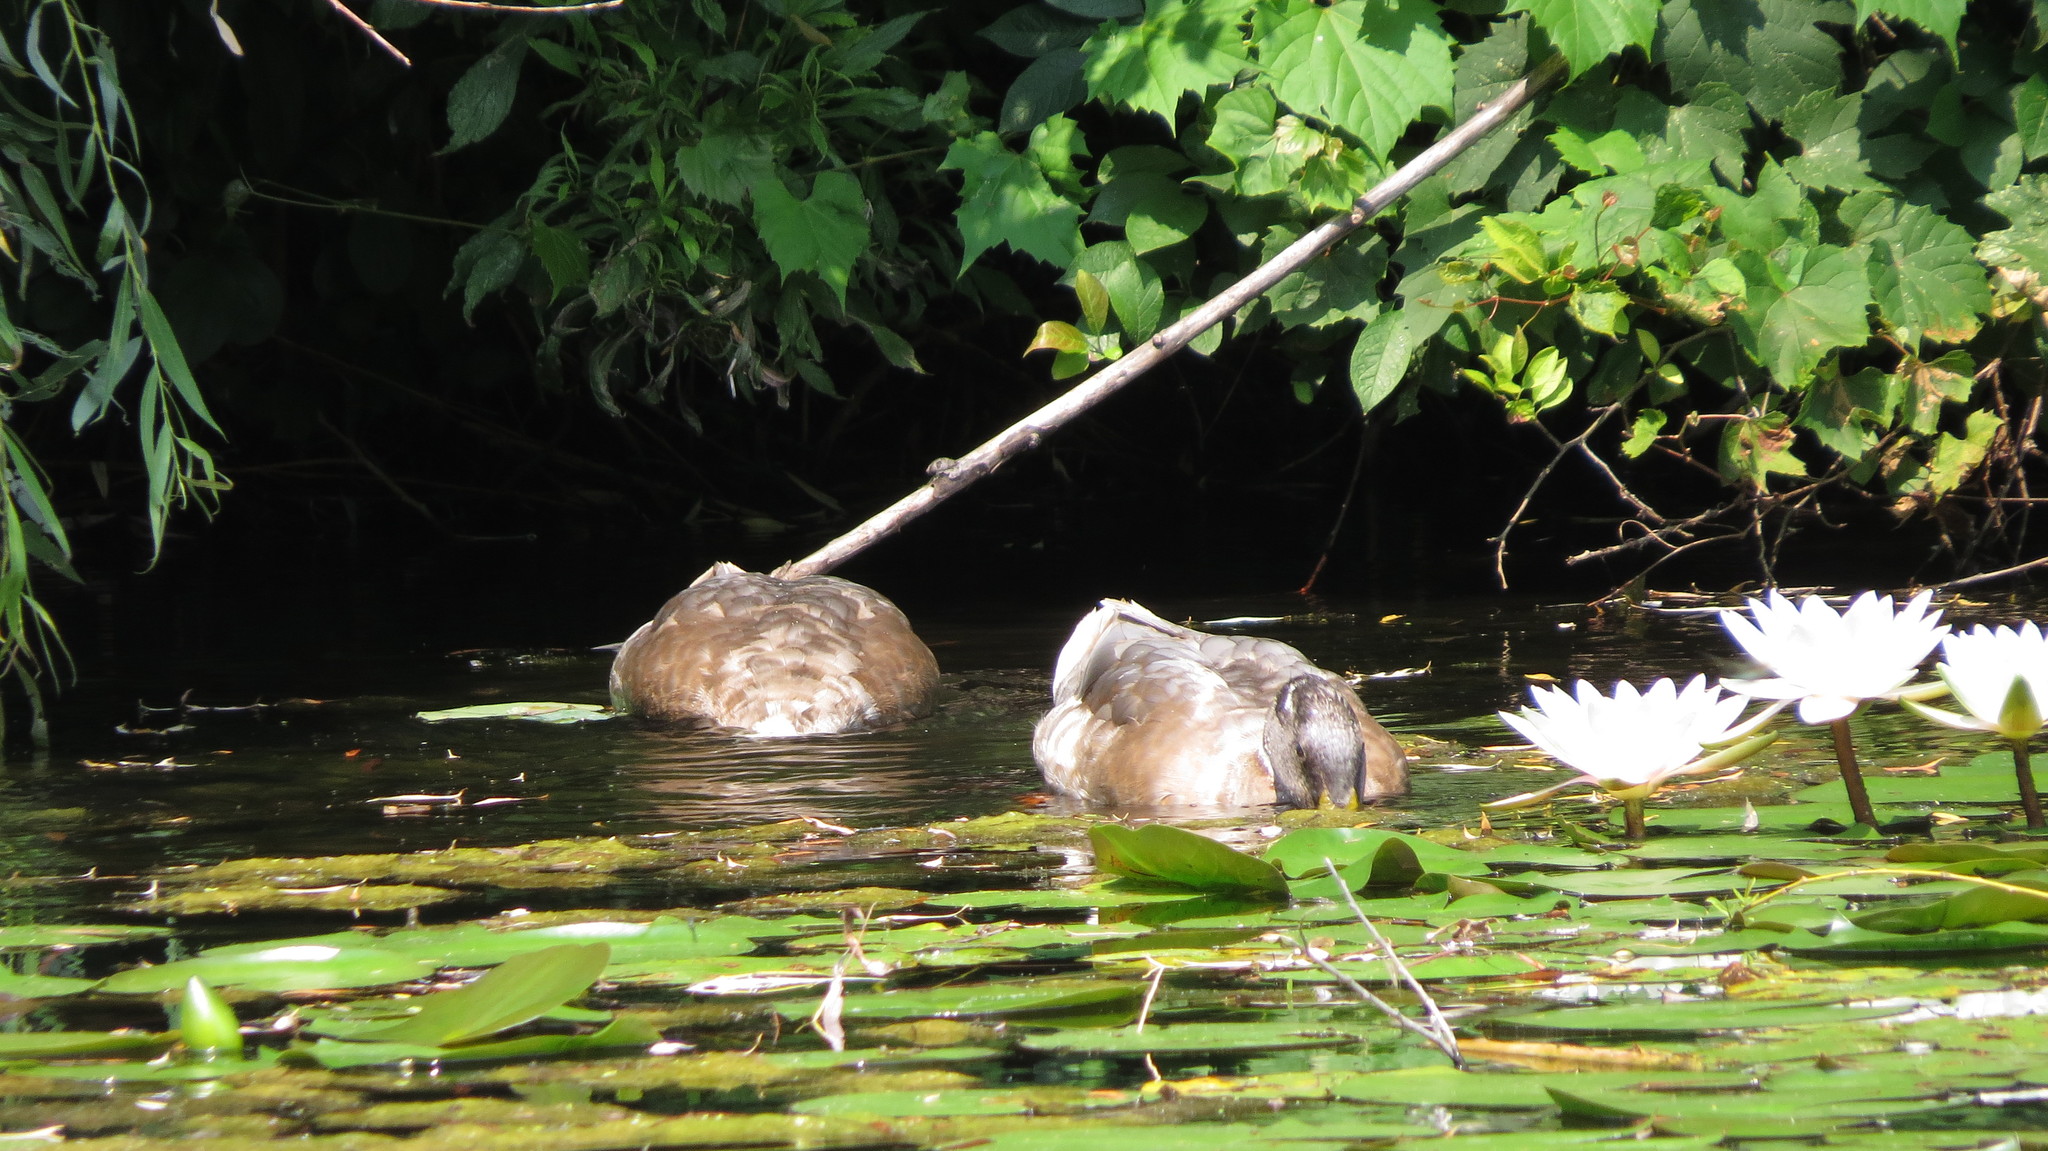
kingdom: Animalia
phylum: Chordata
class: Aves
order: Anseriformes
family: Anatidae
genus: Anas
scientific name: Anas platyrhynchos
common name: Mallard
